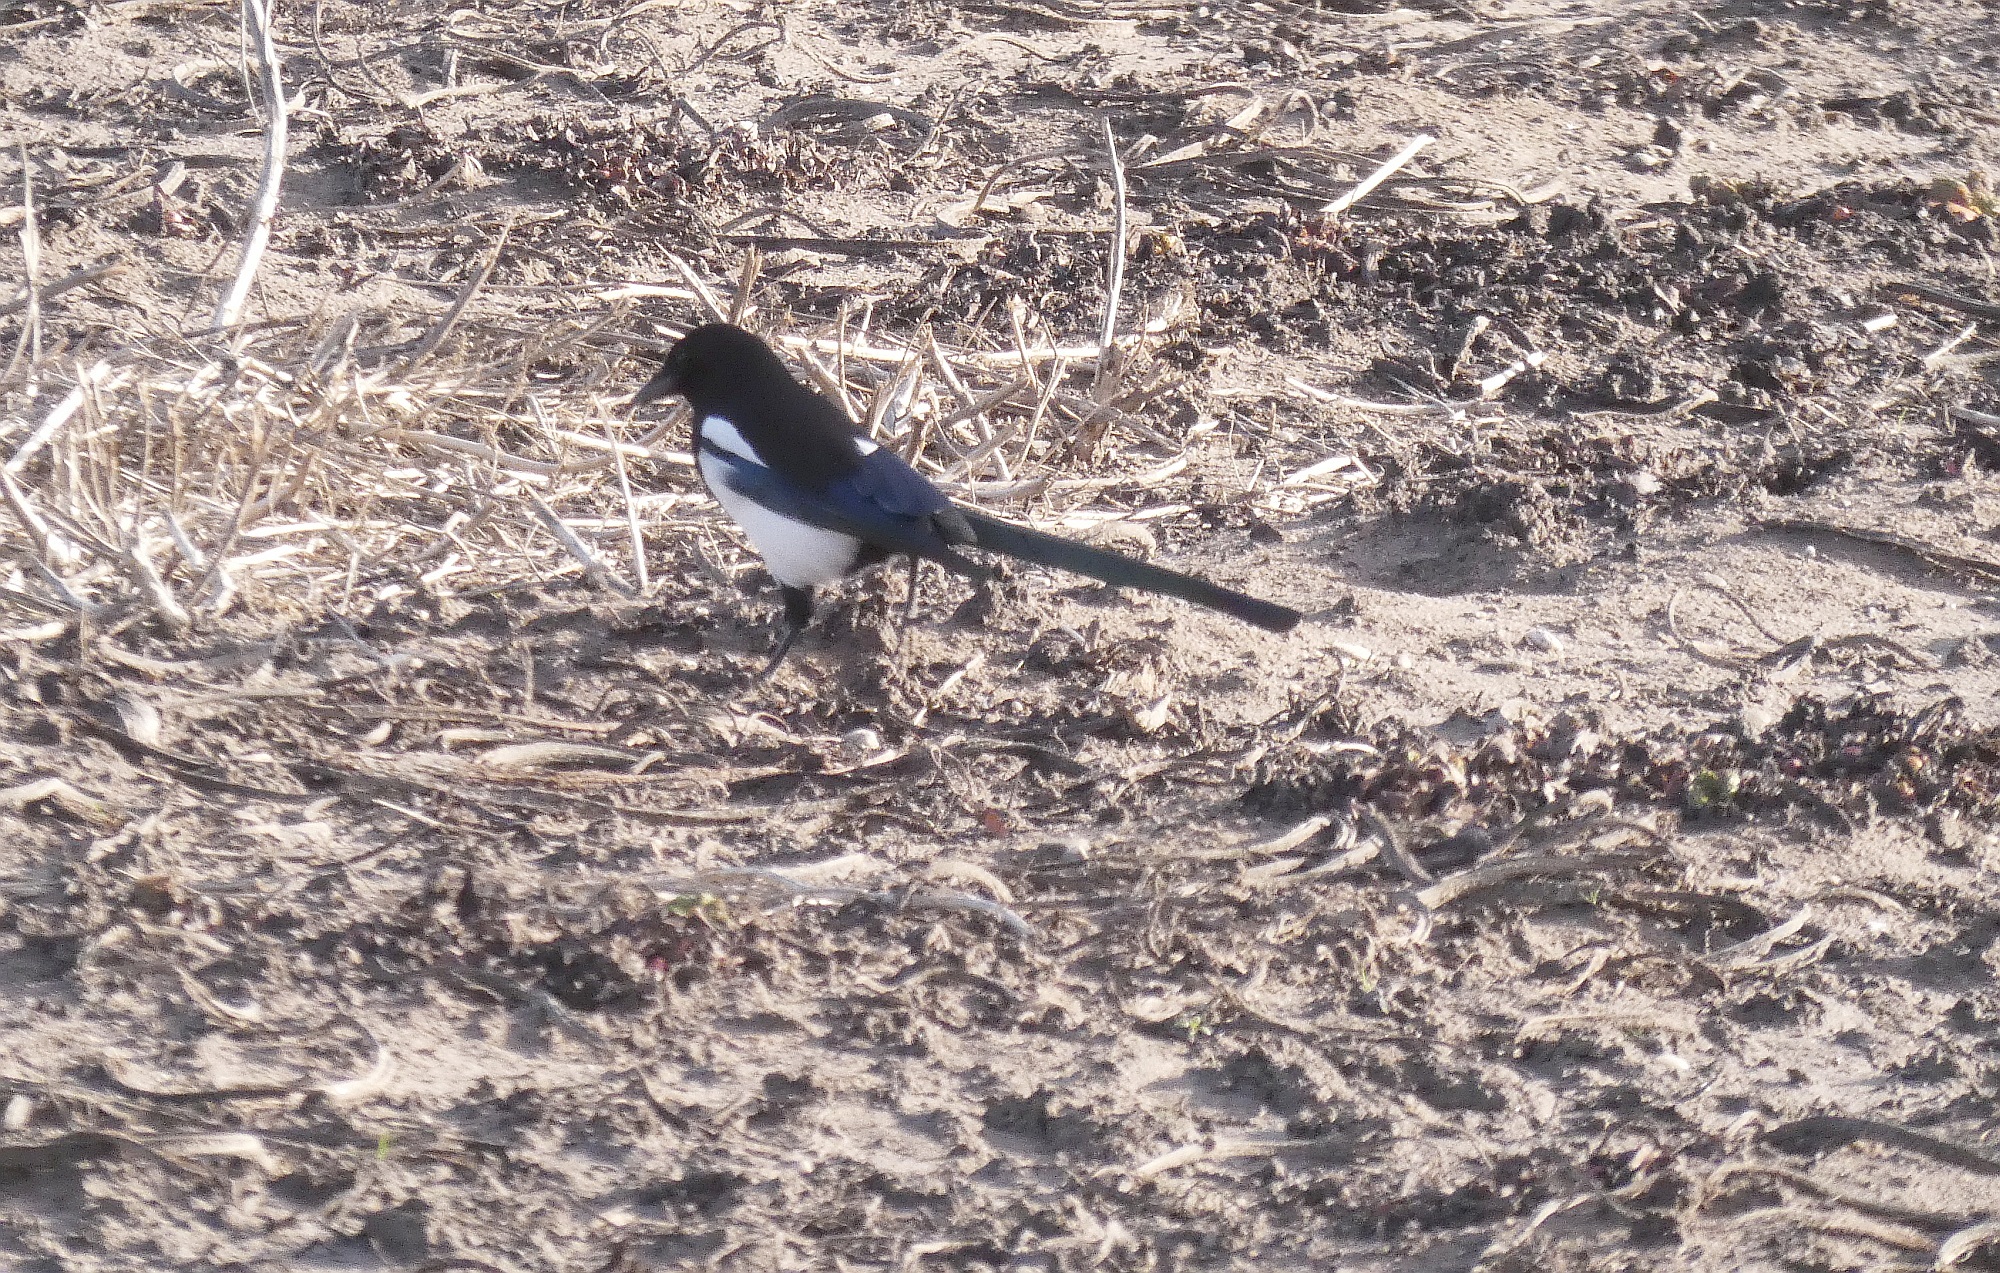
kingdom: Animalia
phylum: Chordata
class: Aves
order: Passeriformes
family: Corvidae
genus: Pica
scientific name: Pica pica
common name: Eurasian magpie
